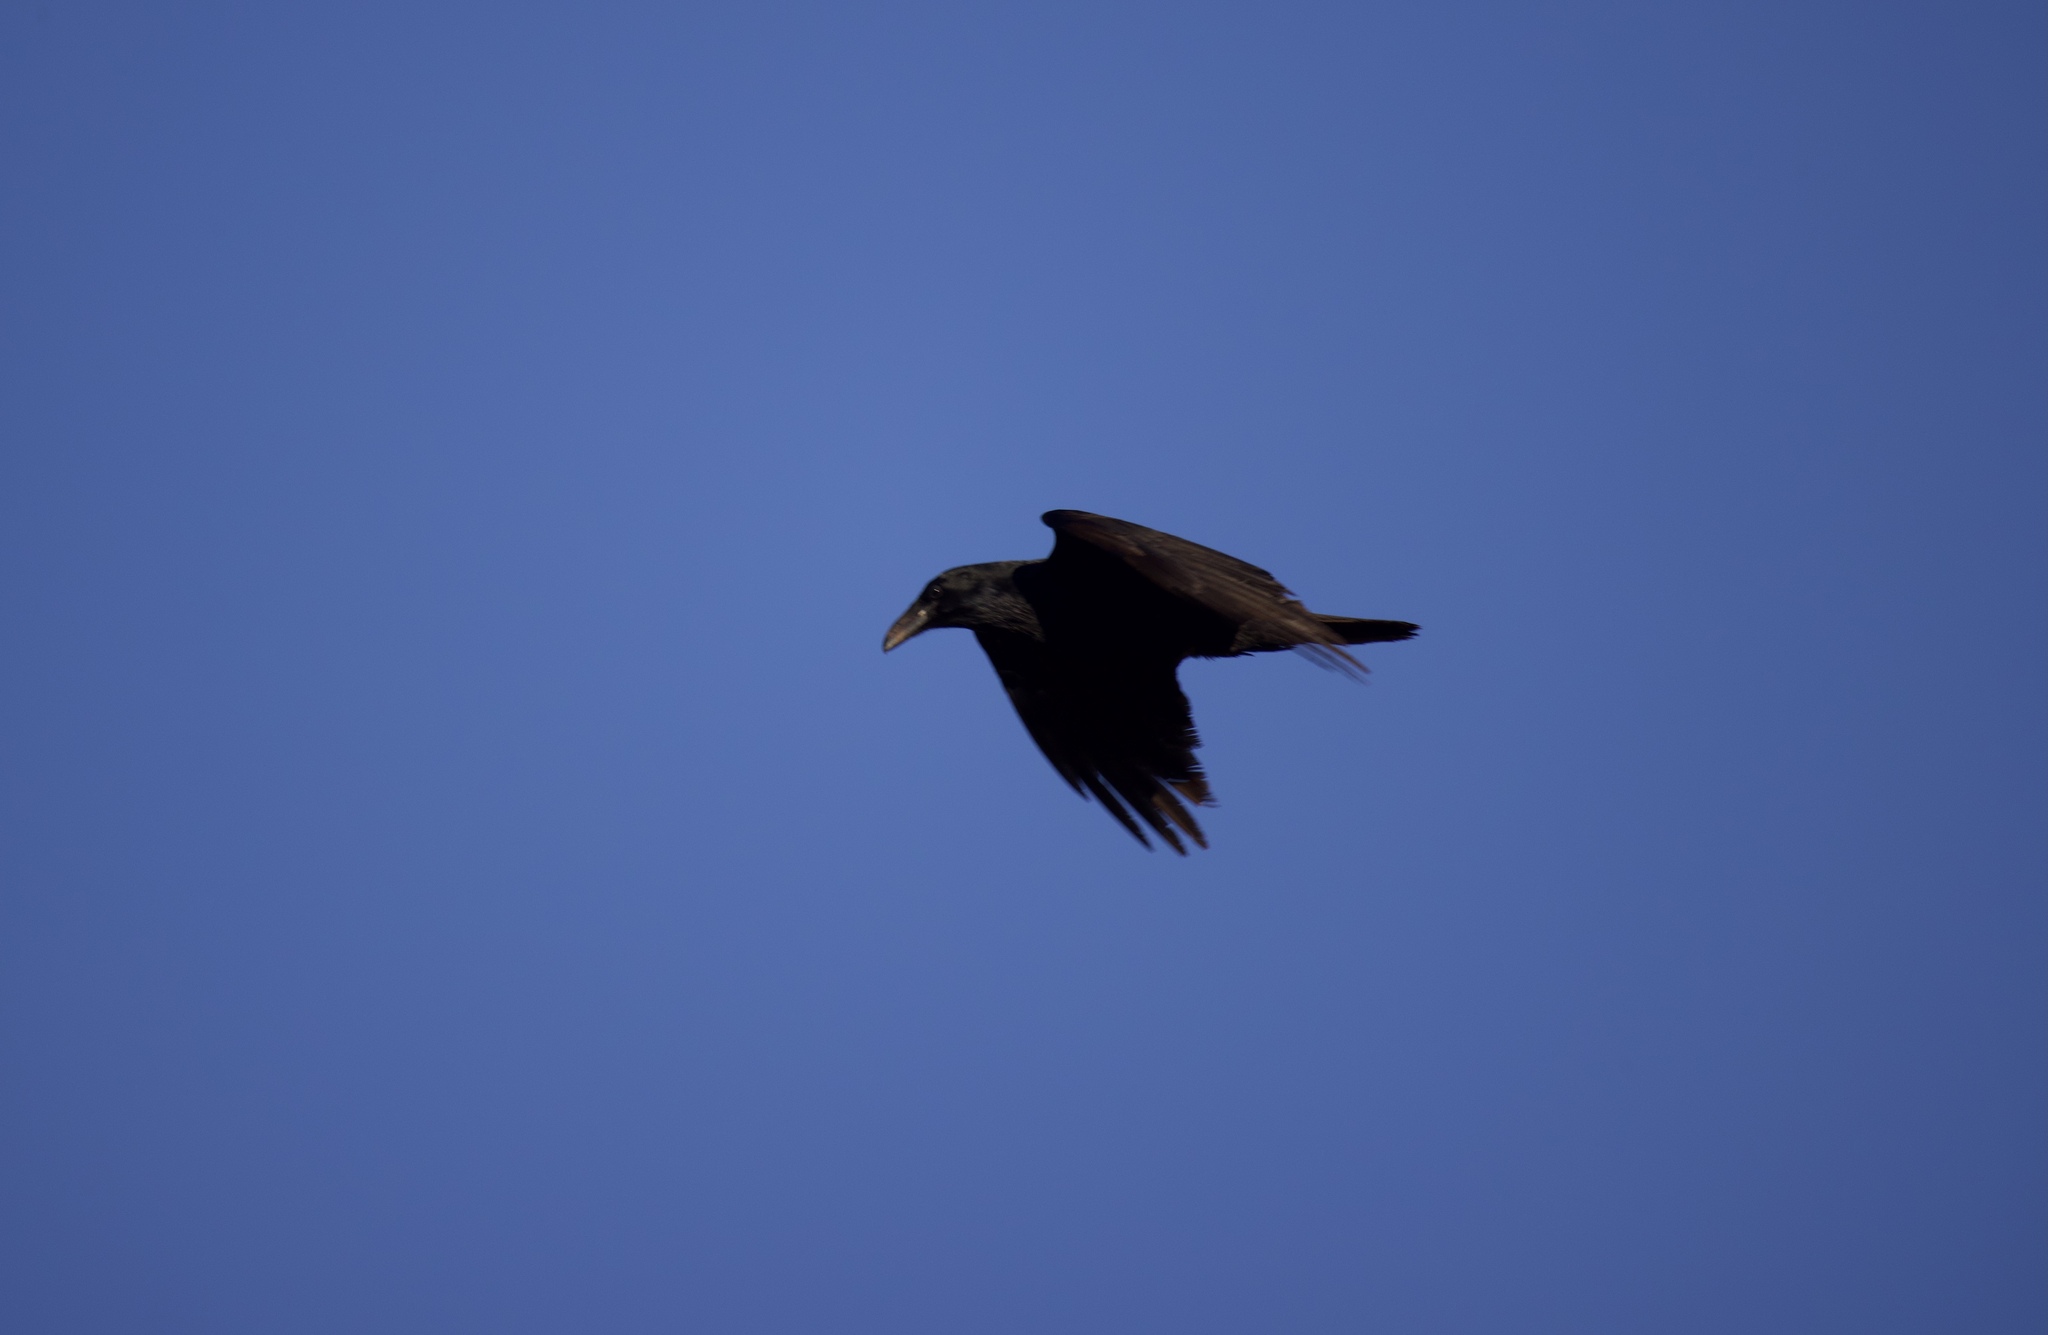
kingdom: Animalia
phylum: Chordata
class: Aves
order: Passeriformes
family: Corvidae
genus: Corvus
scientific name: Corvus corax
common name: Common raven
